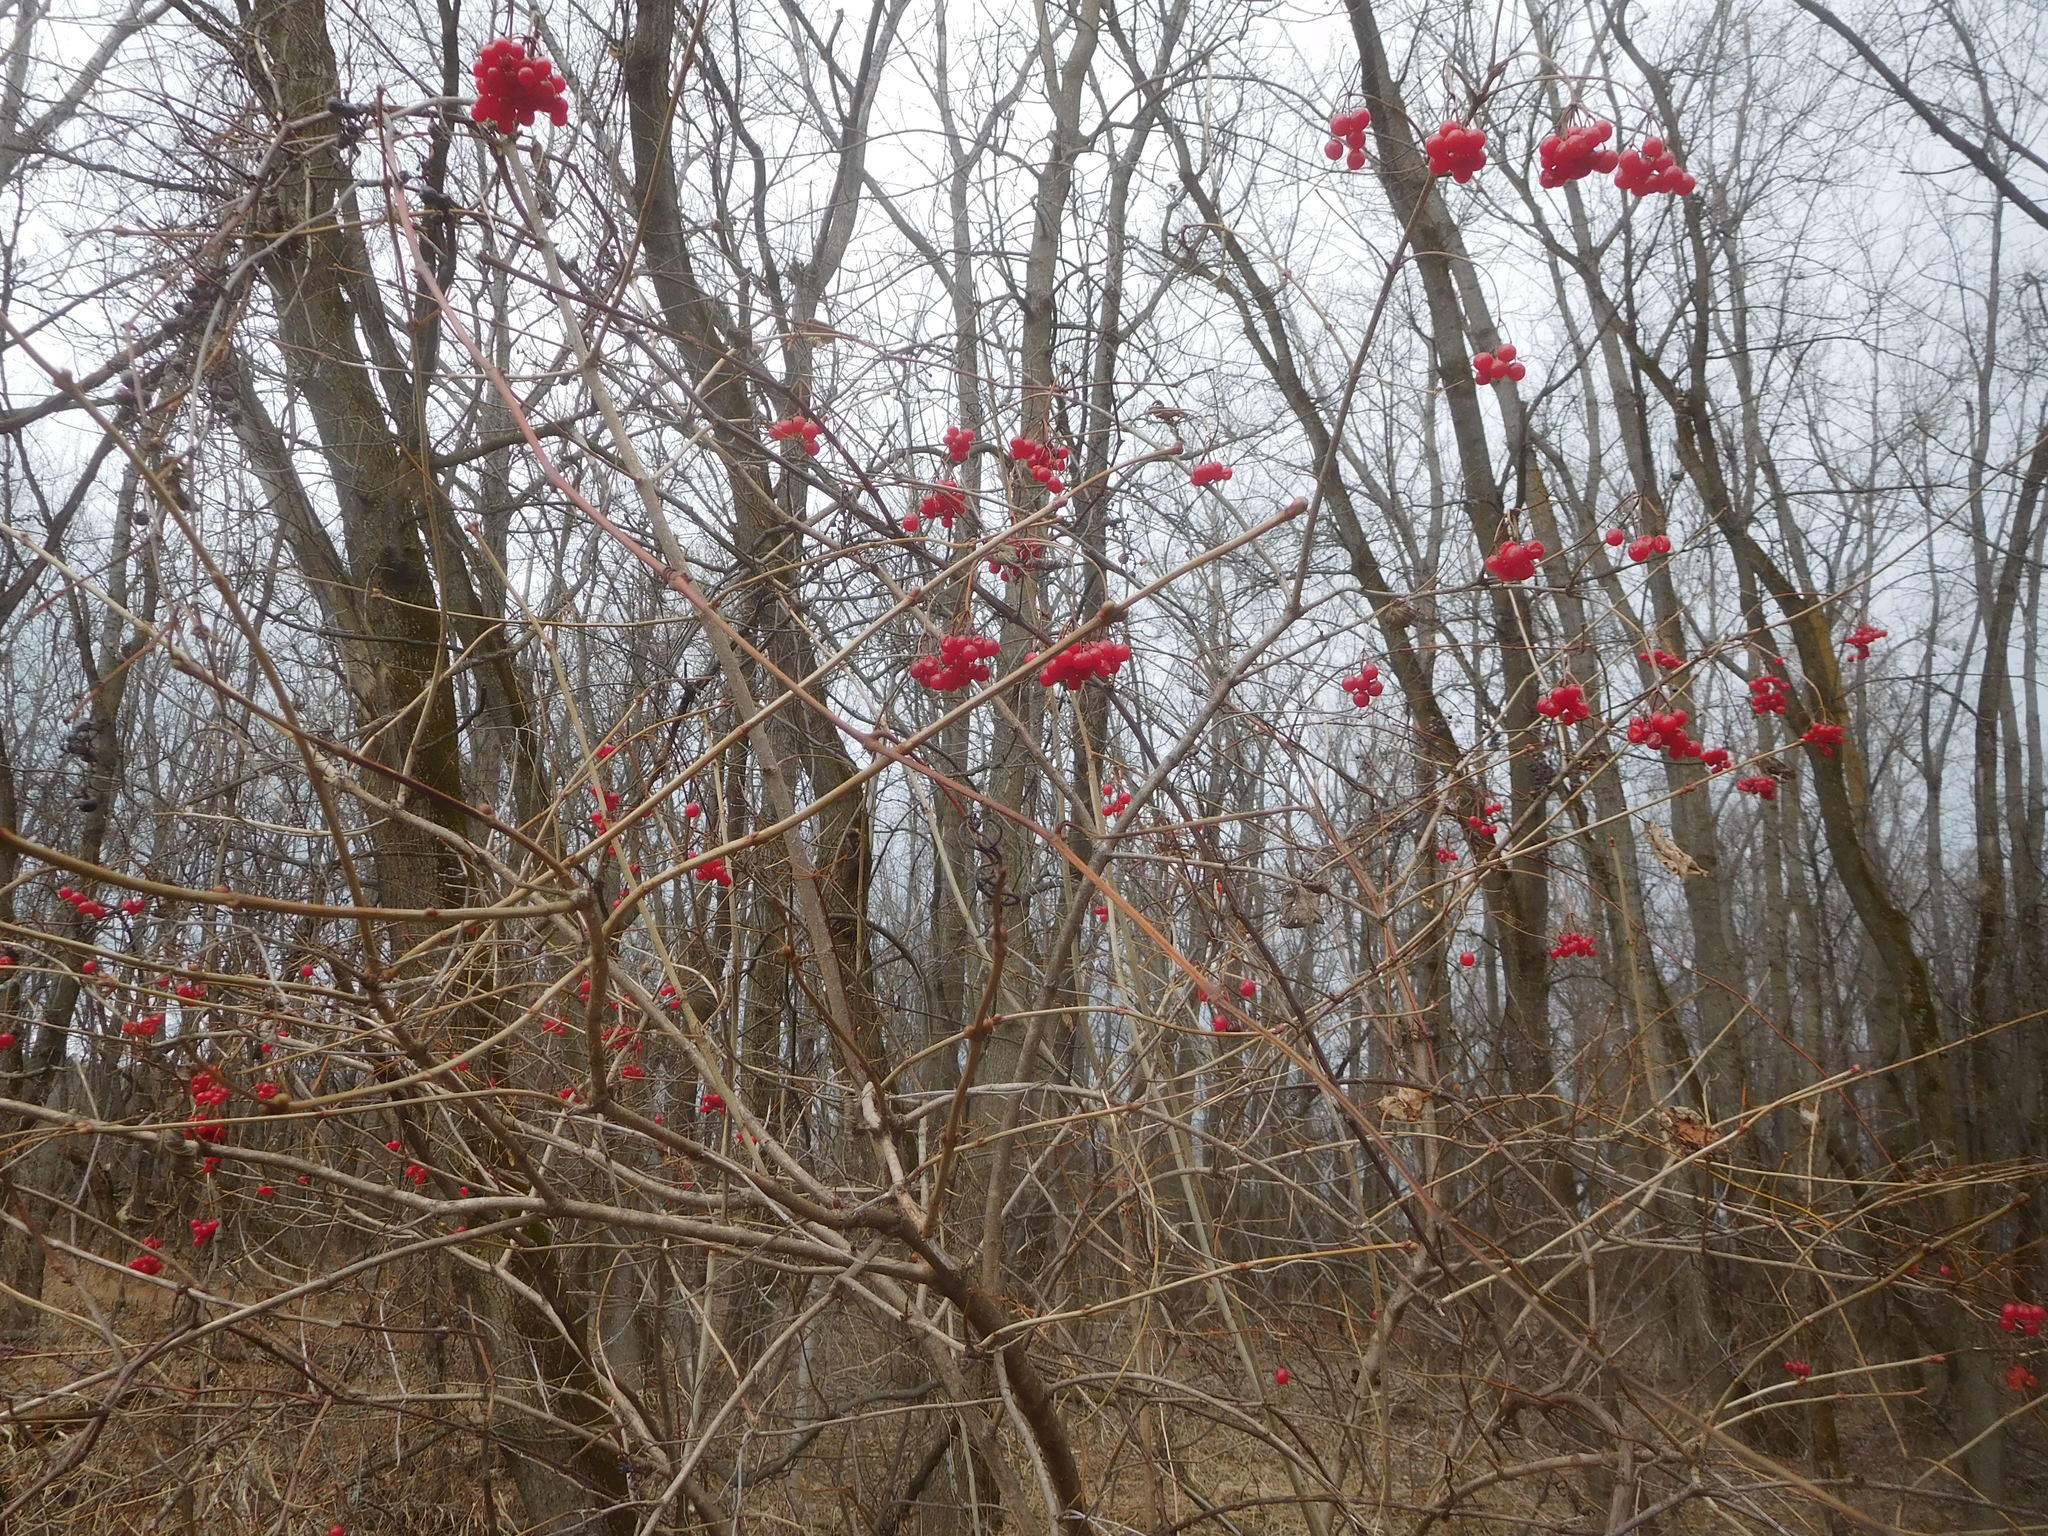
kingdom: Plantae
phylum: Tracheophyta
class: Magnoliopsida
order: Dipsacales
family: Viburnaceae
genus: Viburnum
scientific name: Viburnum opulus
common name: Guelder-rose
